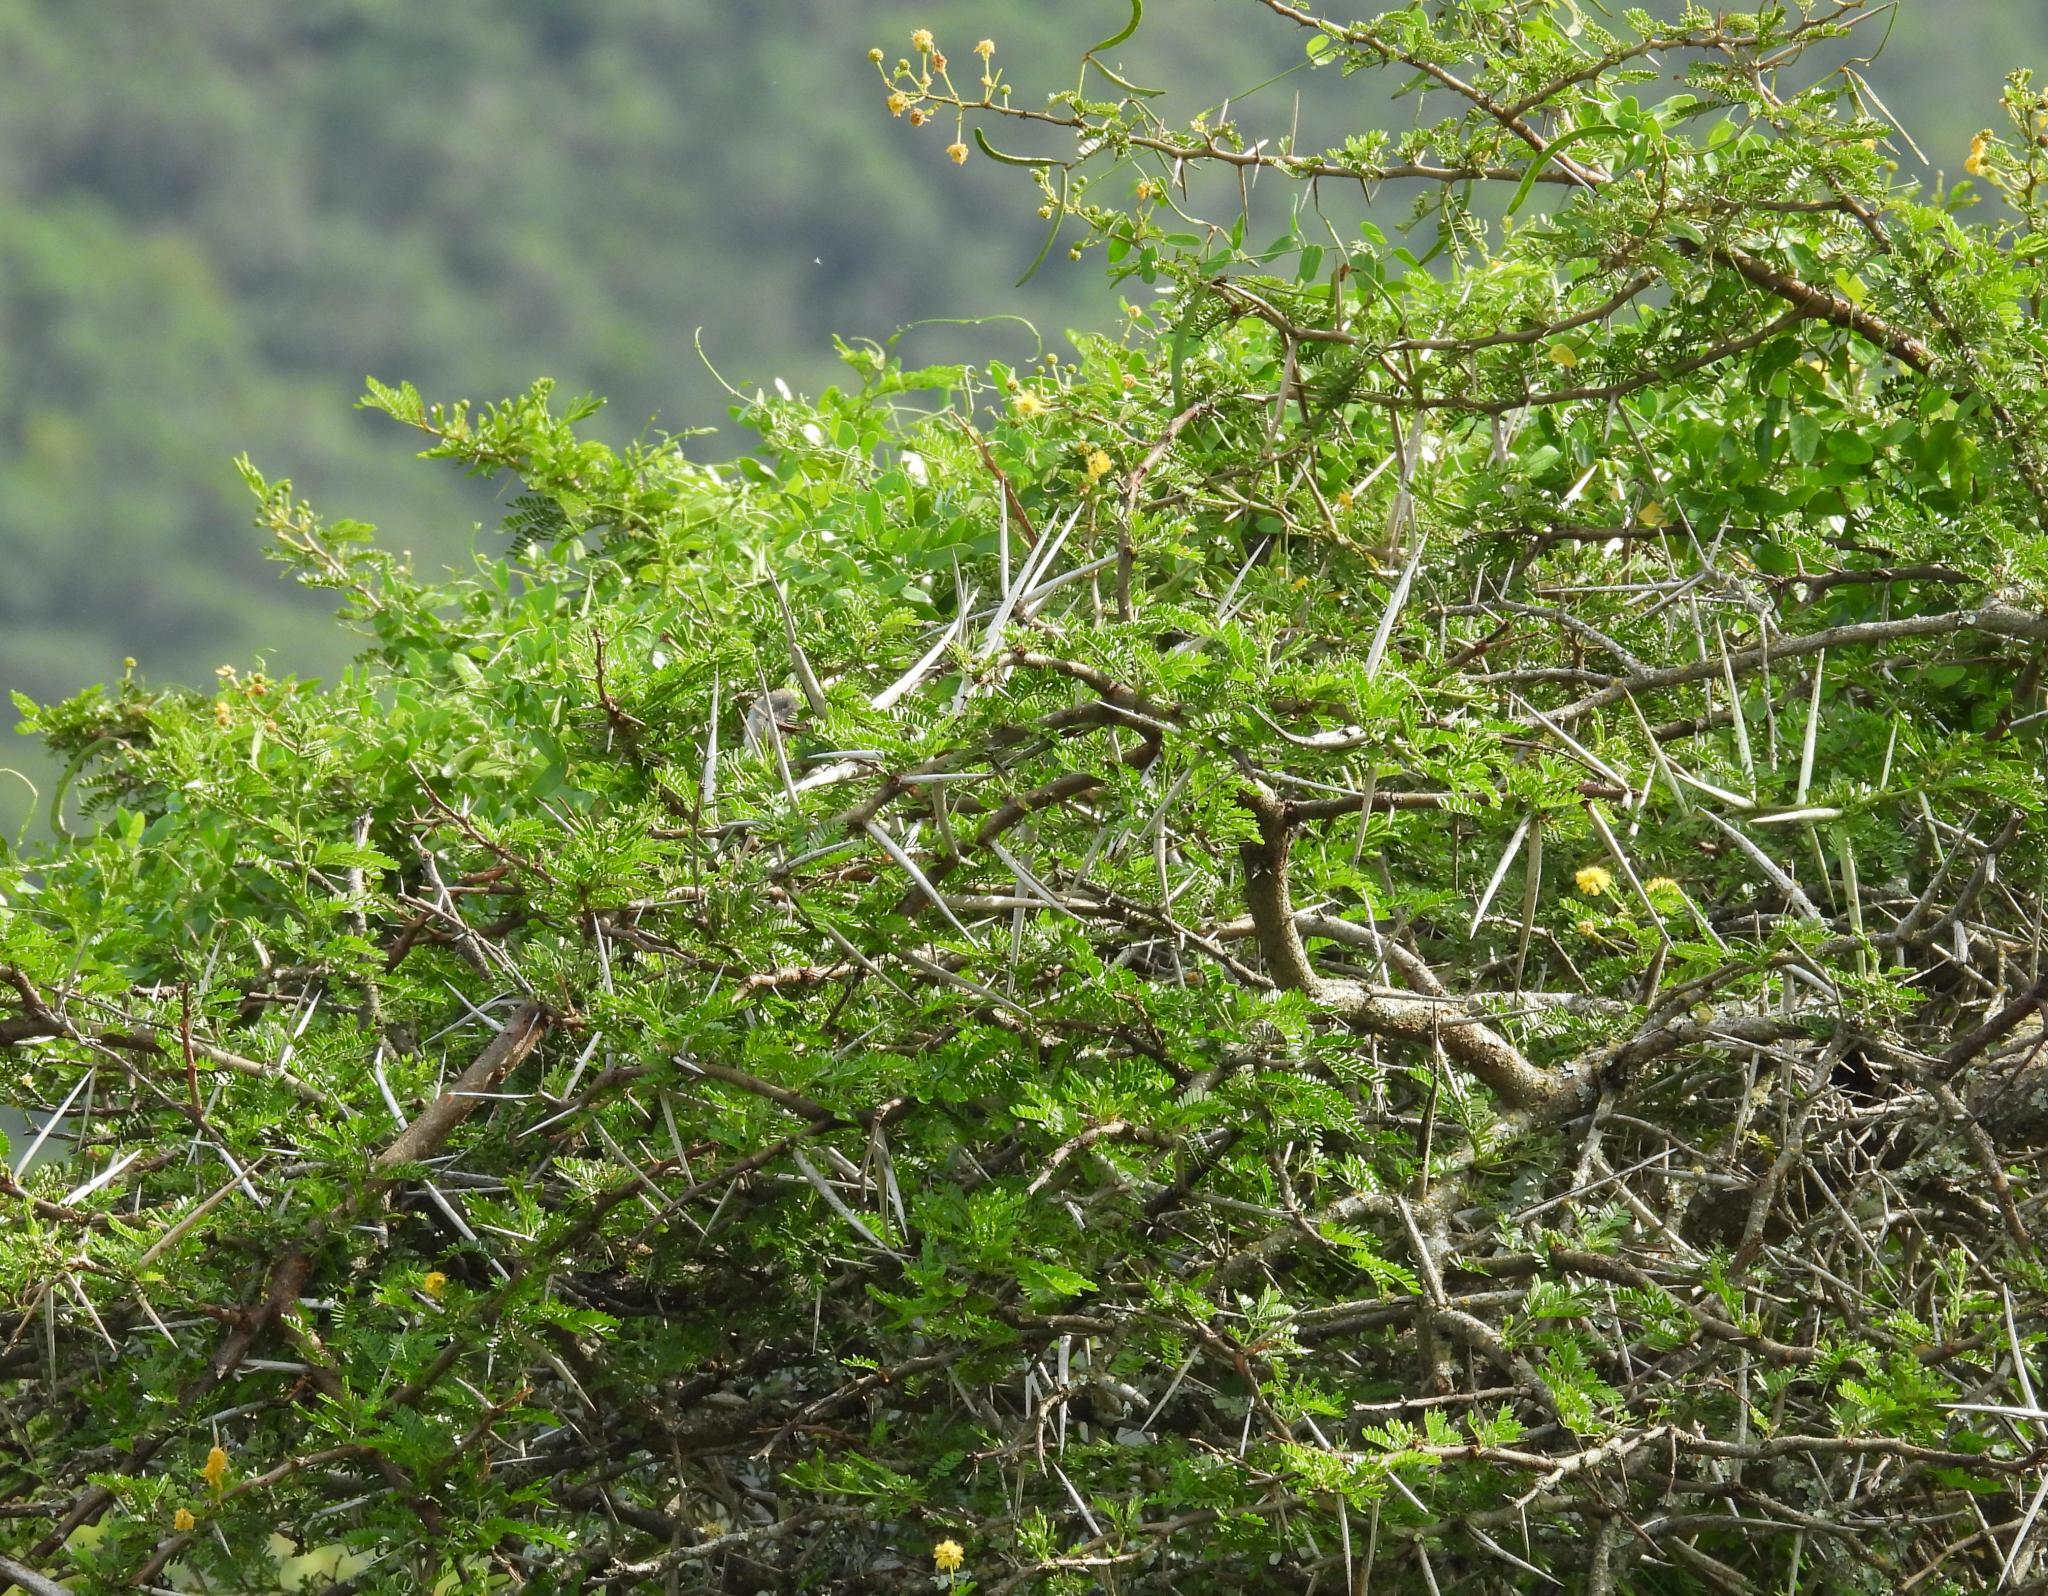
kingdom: Plantae
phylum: Tracheophyta
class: Magnoliopsida
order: Fabales
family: Fabaceae
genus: Vachellia
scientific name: Vachellia karroo
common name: Sweet thorn
